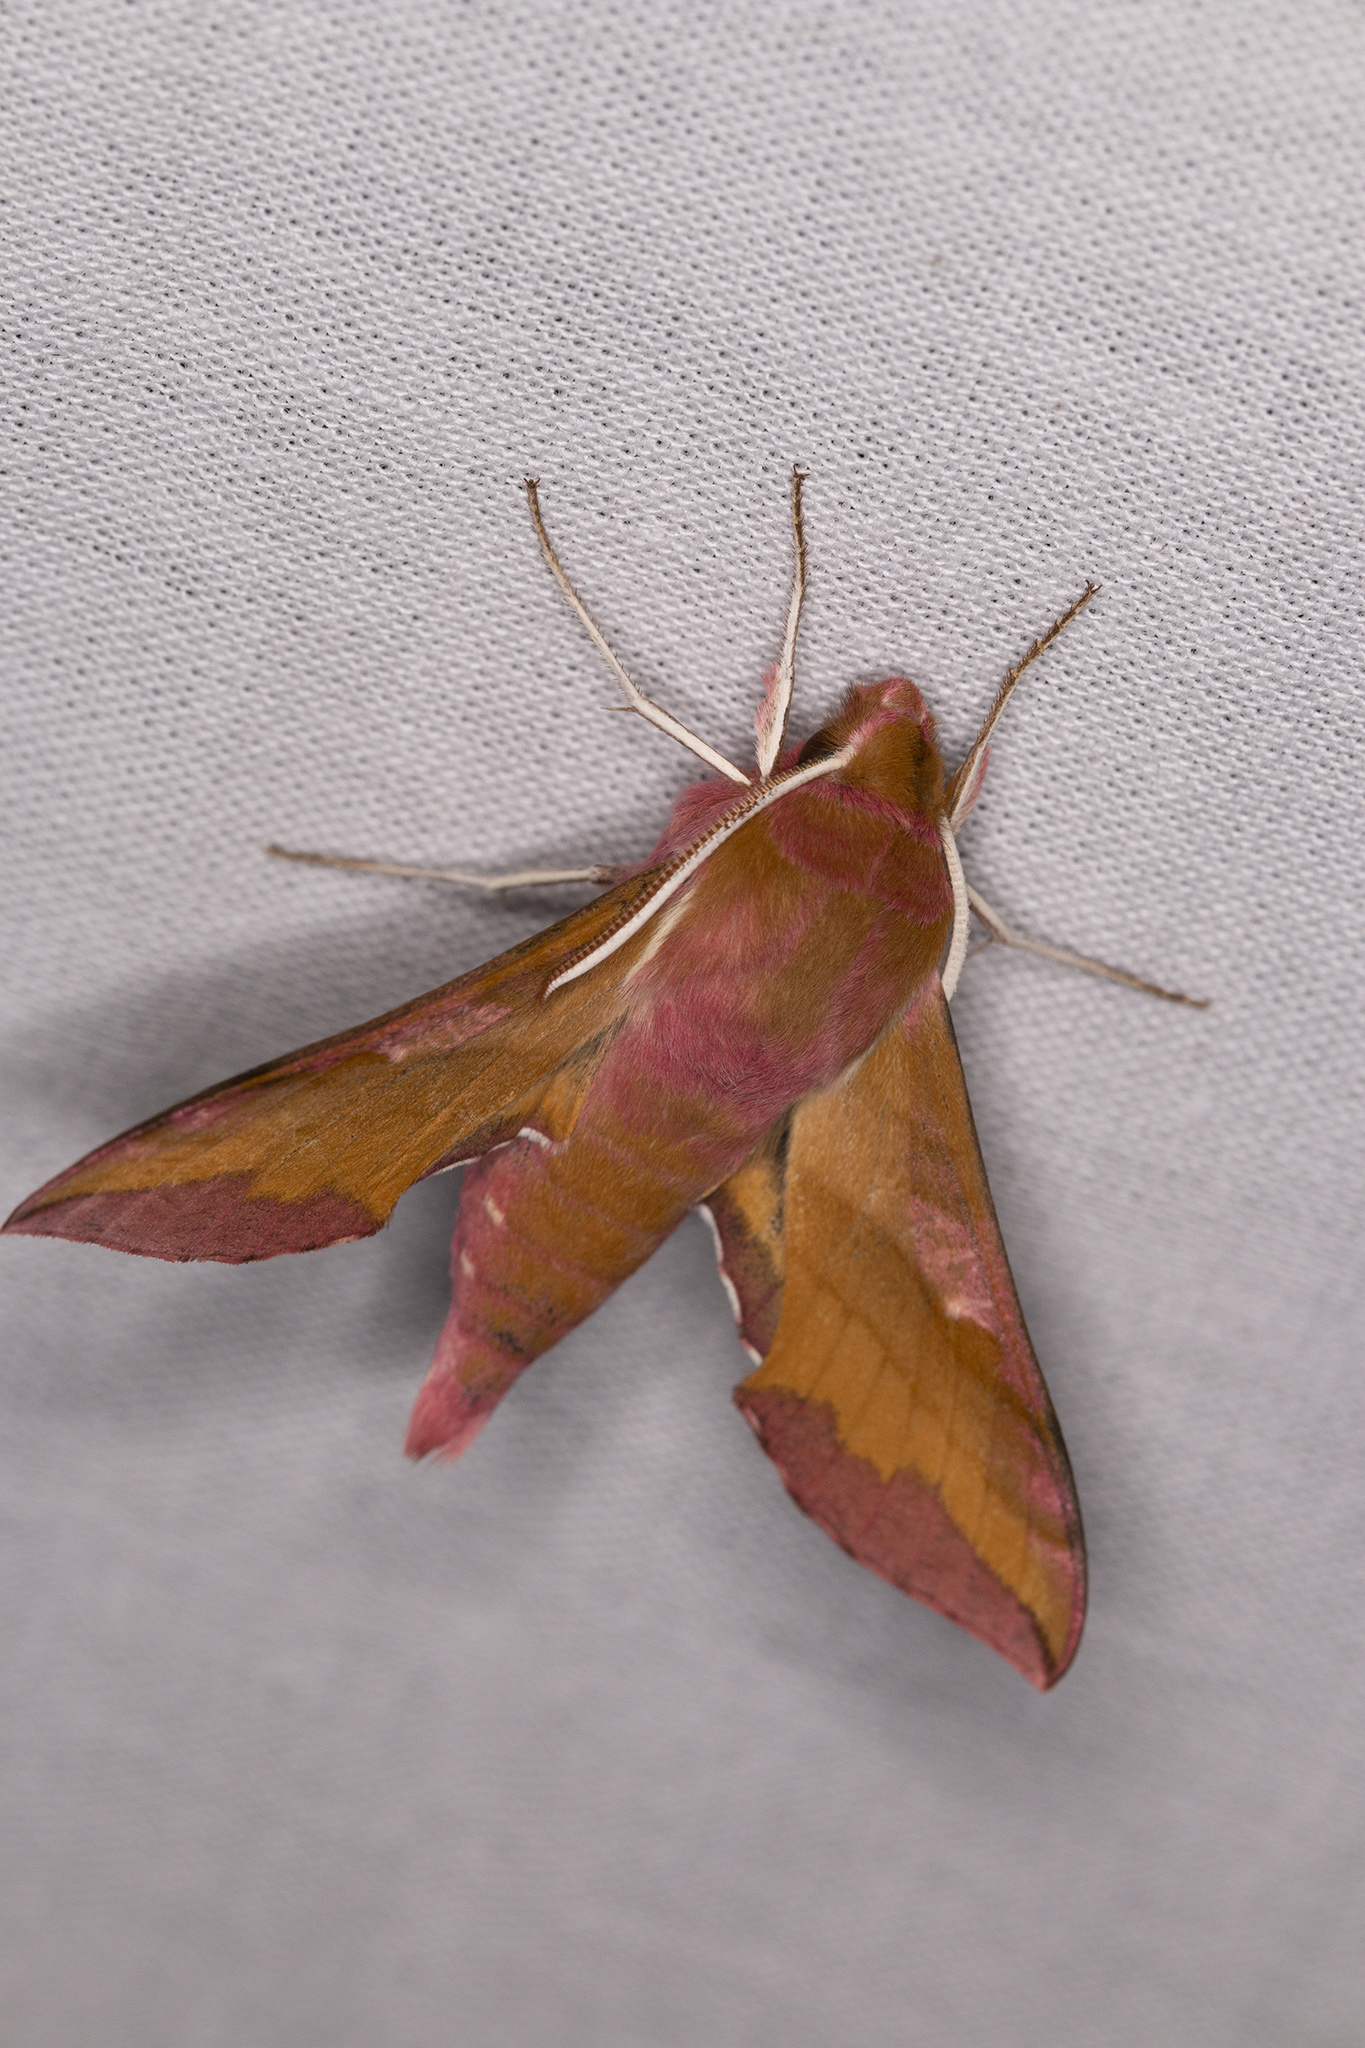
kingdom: Animalia
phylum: Arthropoda
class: Insecta
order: Lepidoptera
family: Sphingidae
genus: Deilephila
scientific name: Deilephila porcellus
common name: Small elephant hawk-moth
